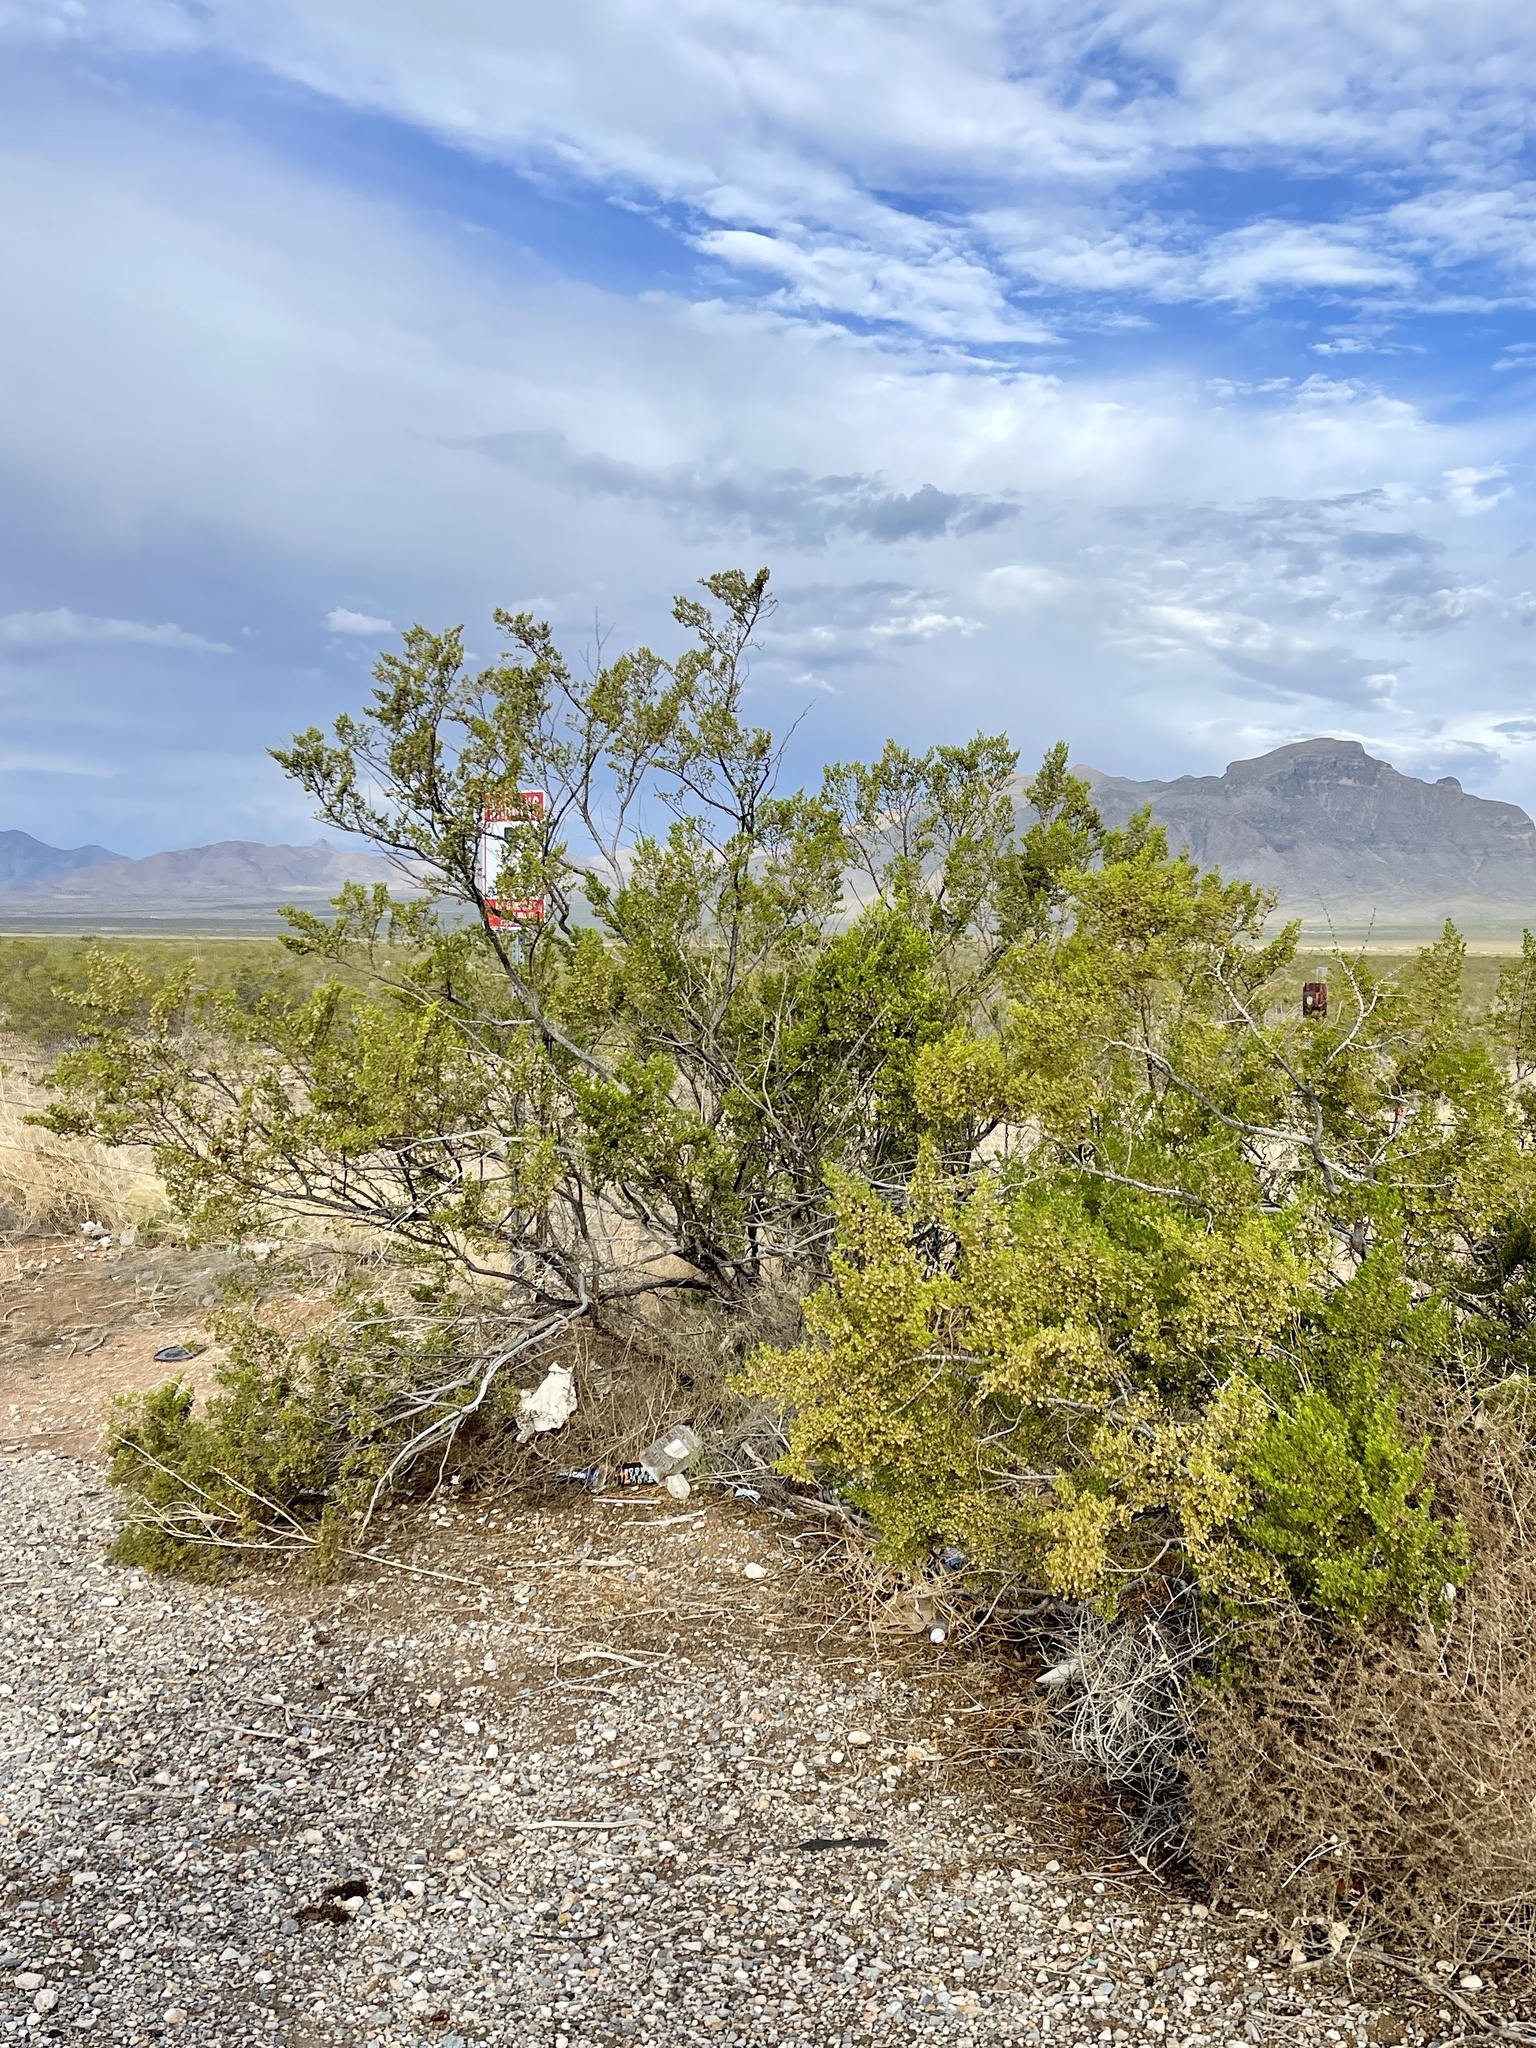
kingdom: Plantae
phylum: Tracheophyta
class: Magnoliopsida
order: Zygophyllales
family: Zygophyllaceae
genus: Larrea
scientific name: Larrea tridentata
